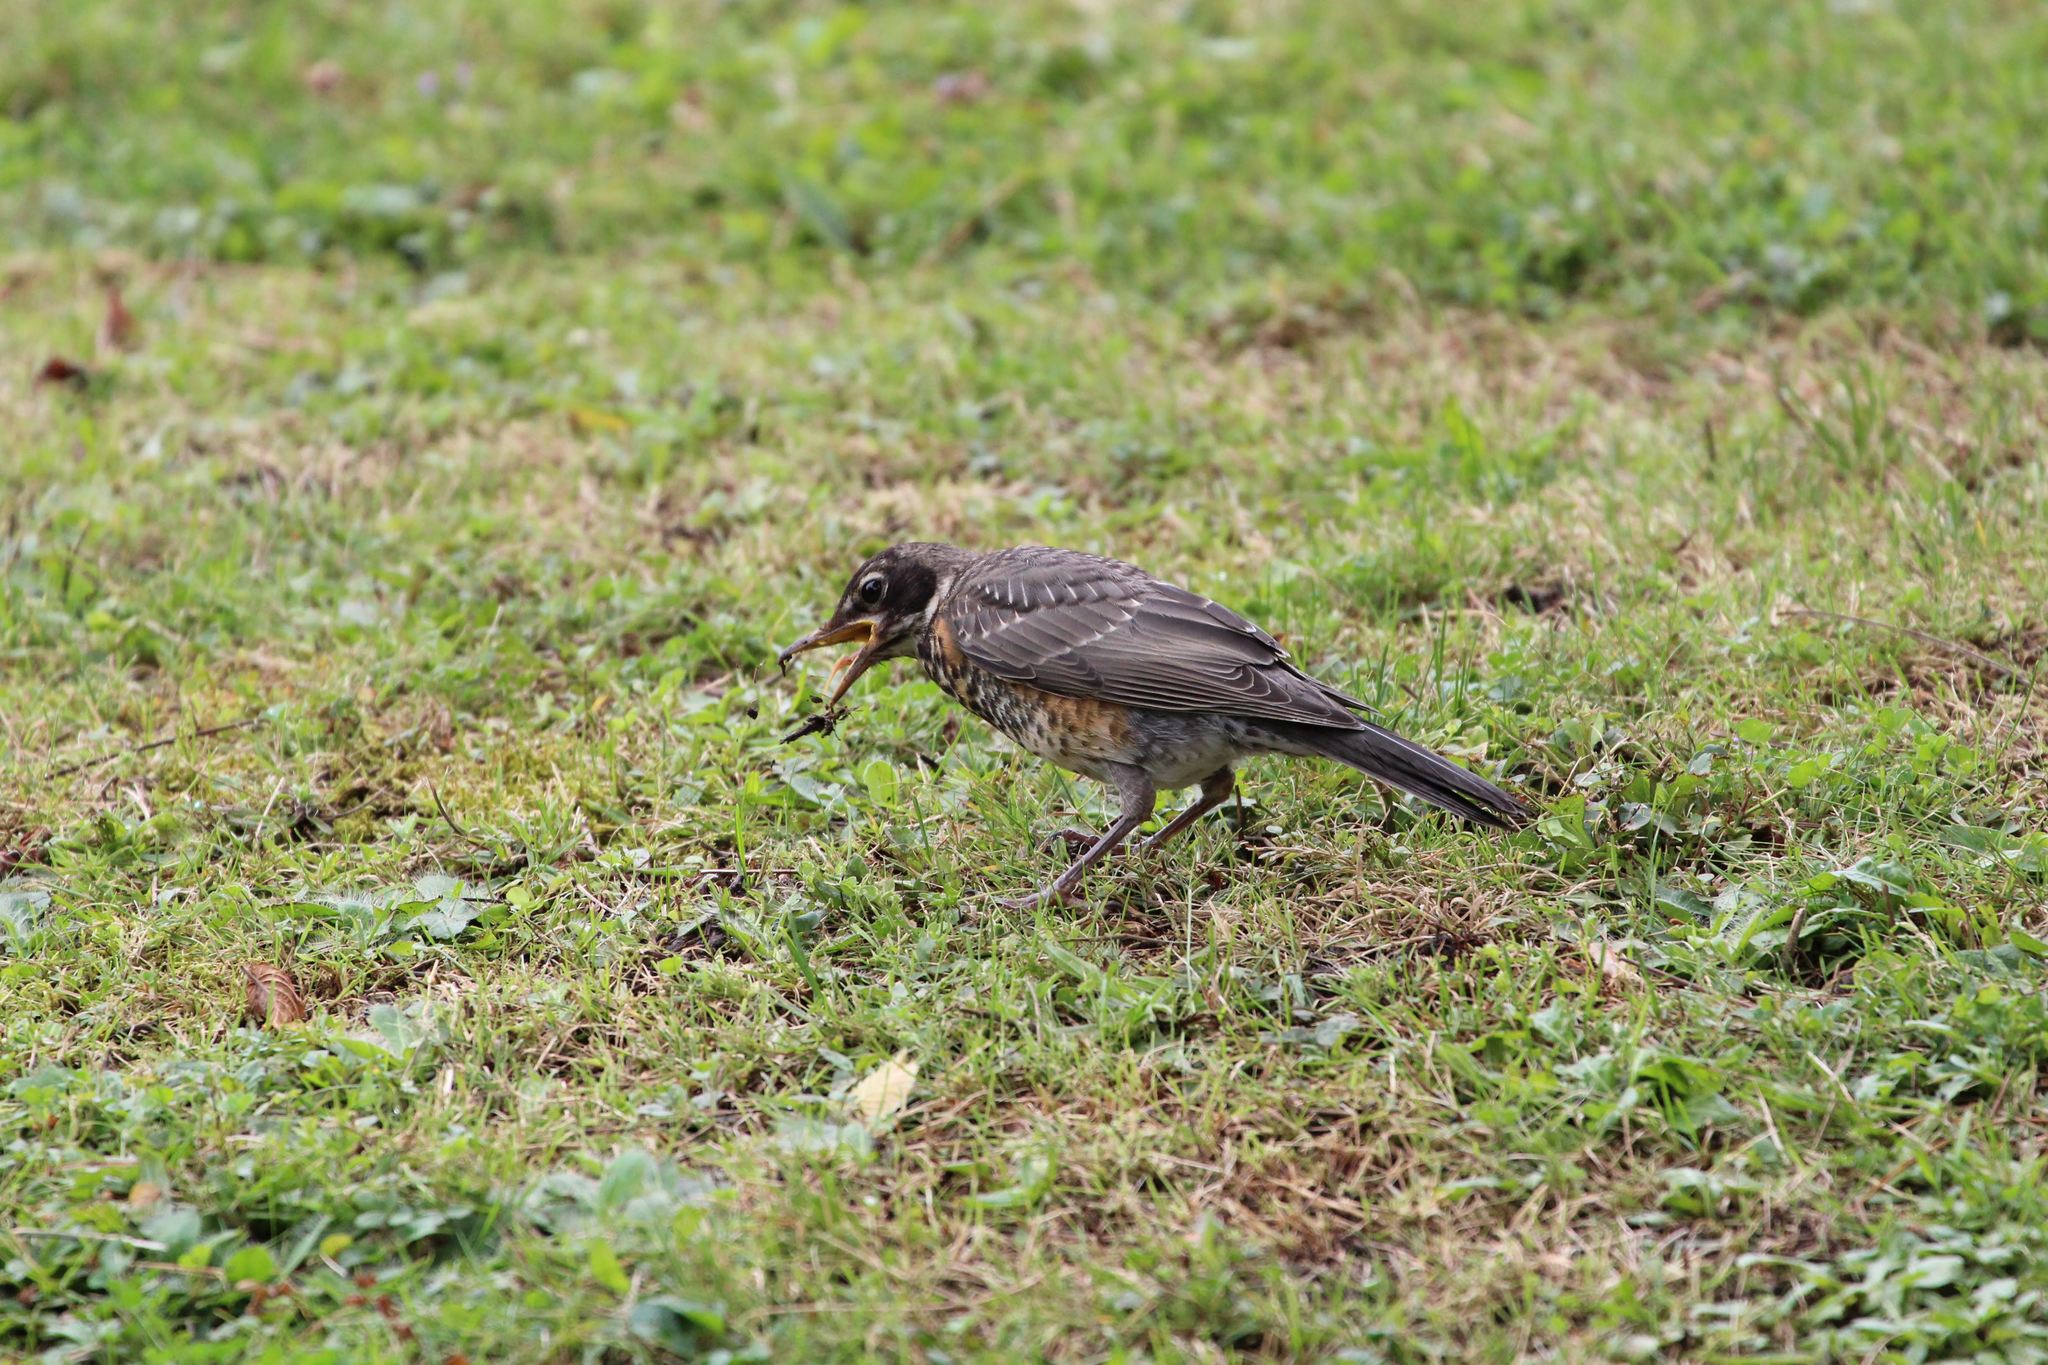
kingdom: Animalia
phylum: Chordata
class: Aves
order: Passeriformes
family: Turdidae
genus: Turdus
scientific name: Turdus migratorius
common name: American robin
